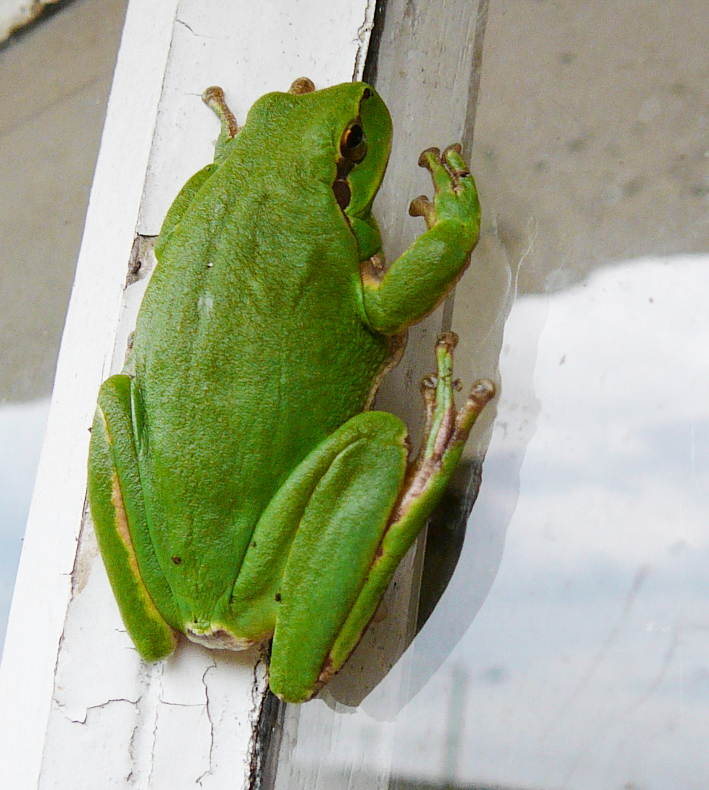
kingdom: Animalia
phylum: Chordata
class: Amphibia
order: Anura
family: Hylidae
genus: Hyla
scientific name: Hyla meridionalis
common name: Stripeless tree frog
